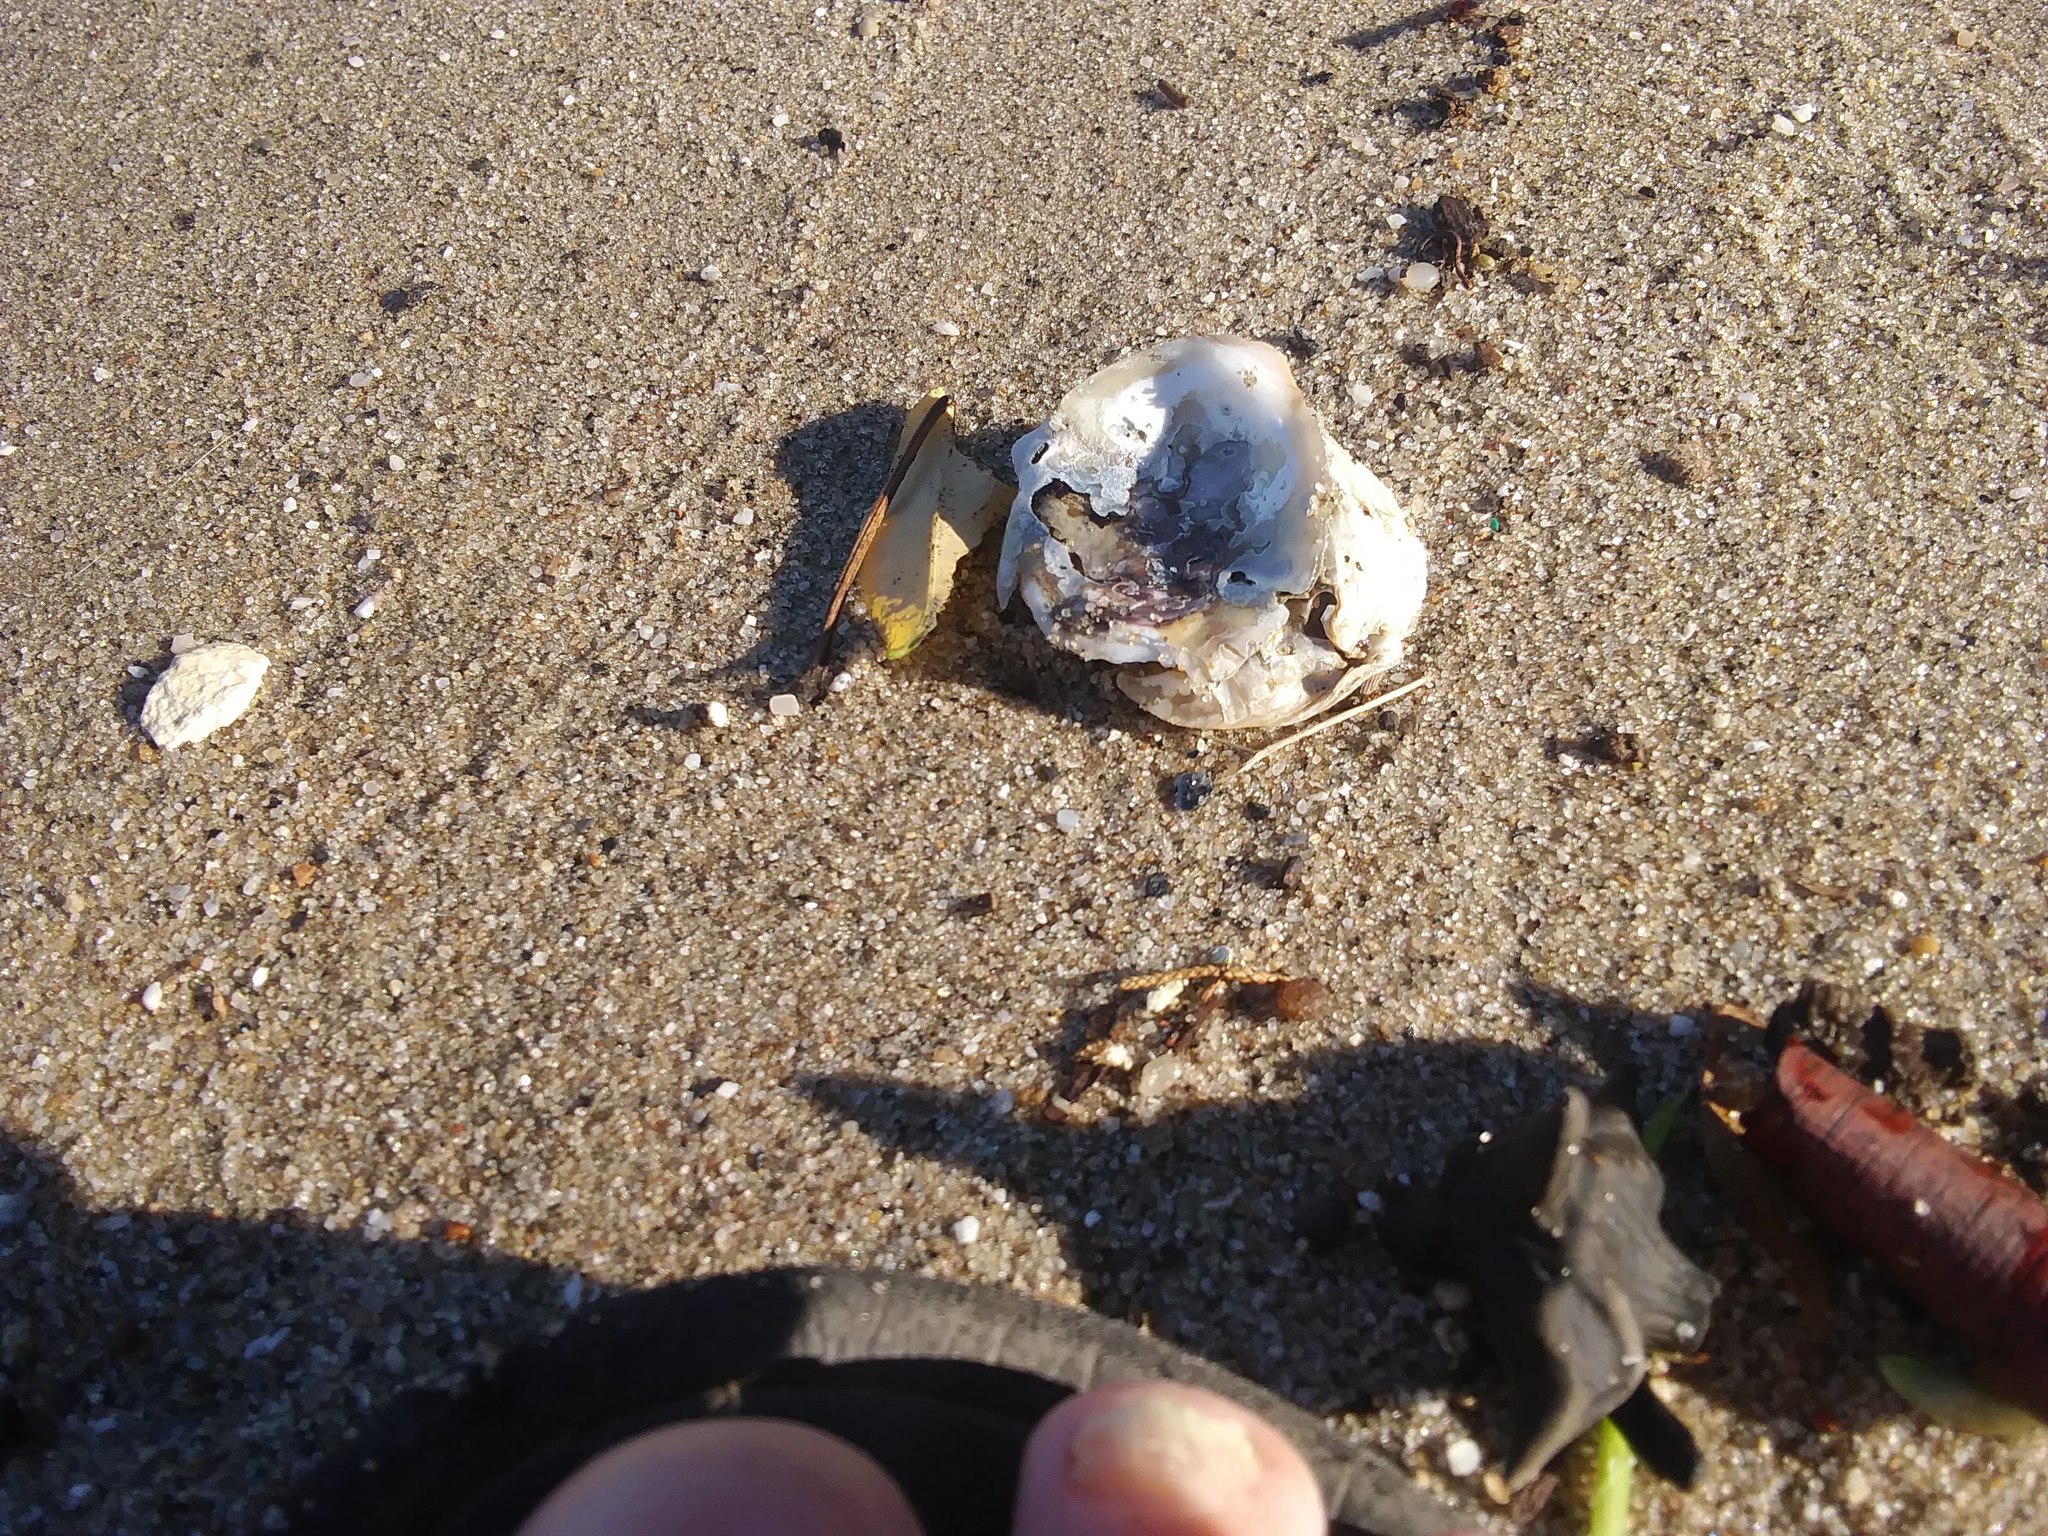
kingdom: Animalia
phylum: Mollusca
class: Bivalvia
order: Ostreida
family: Ostreidae
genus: Crassostrea
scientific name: Crassostrea virginica
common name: American oyster
